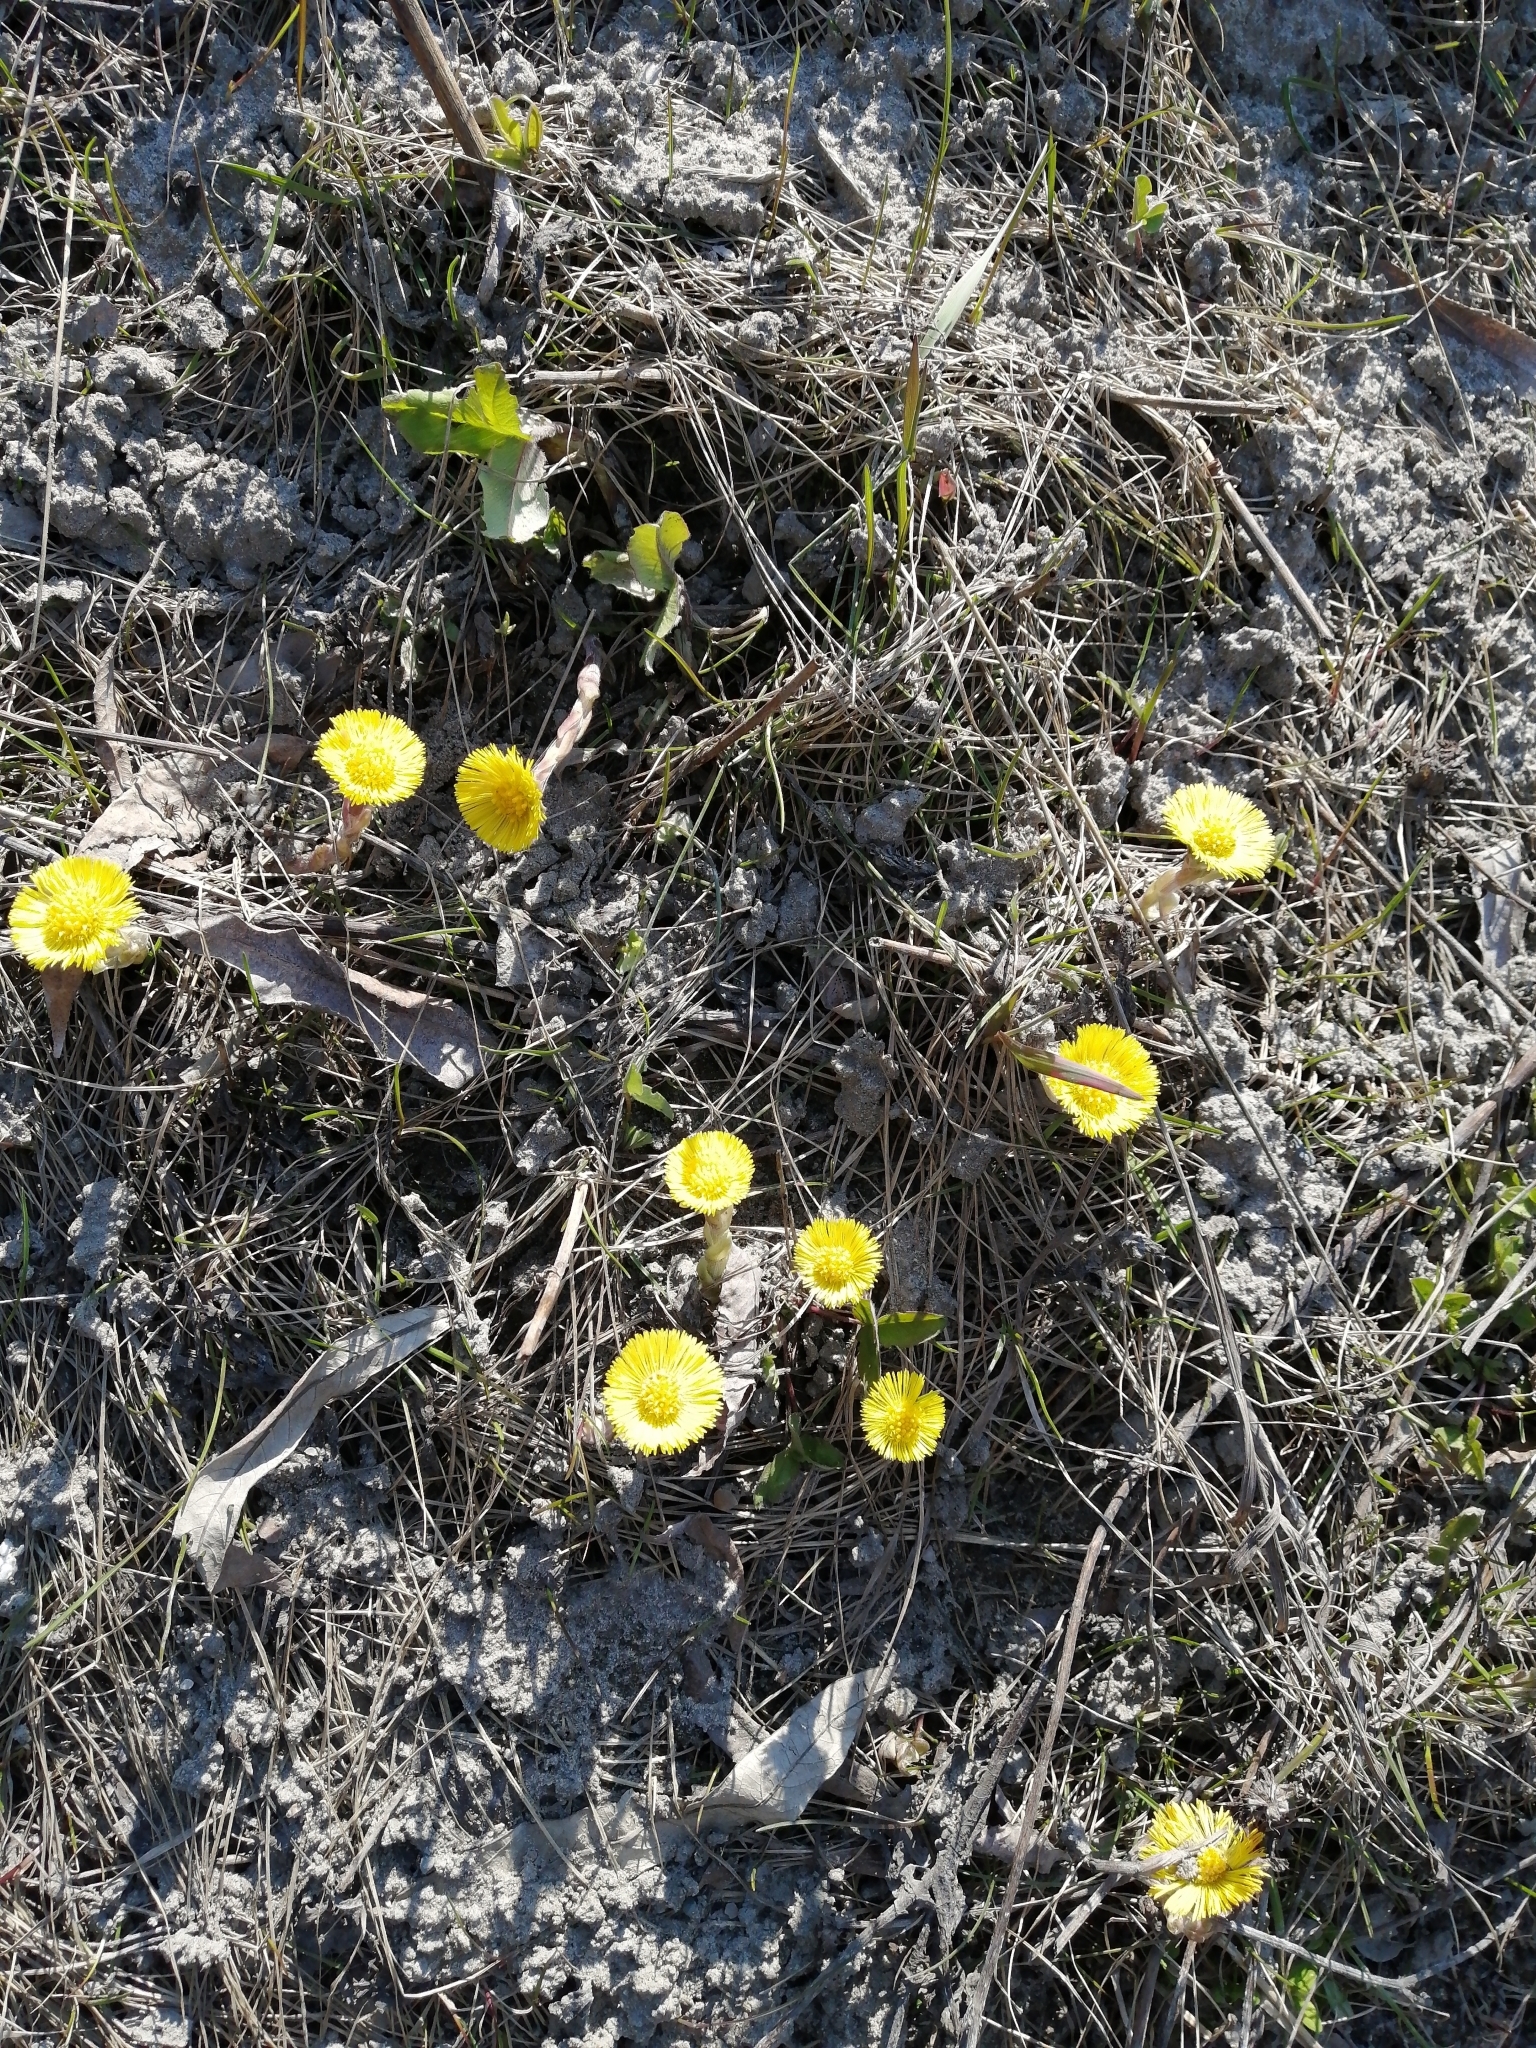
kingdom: Plantae
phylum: Tracheophyta
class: Magnoliopsida
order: Asterales
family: Asteraceae
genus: Tussilago
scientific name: Tussilago farfara
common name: Coltsfoot
